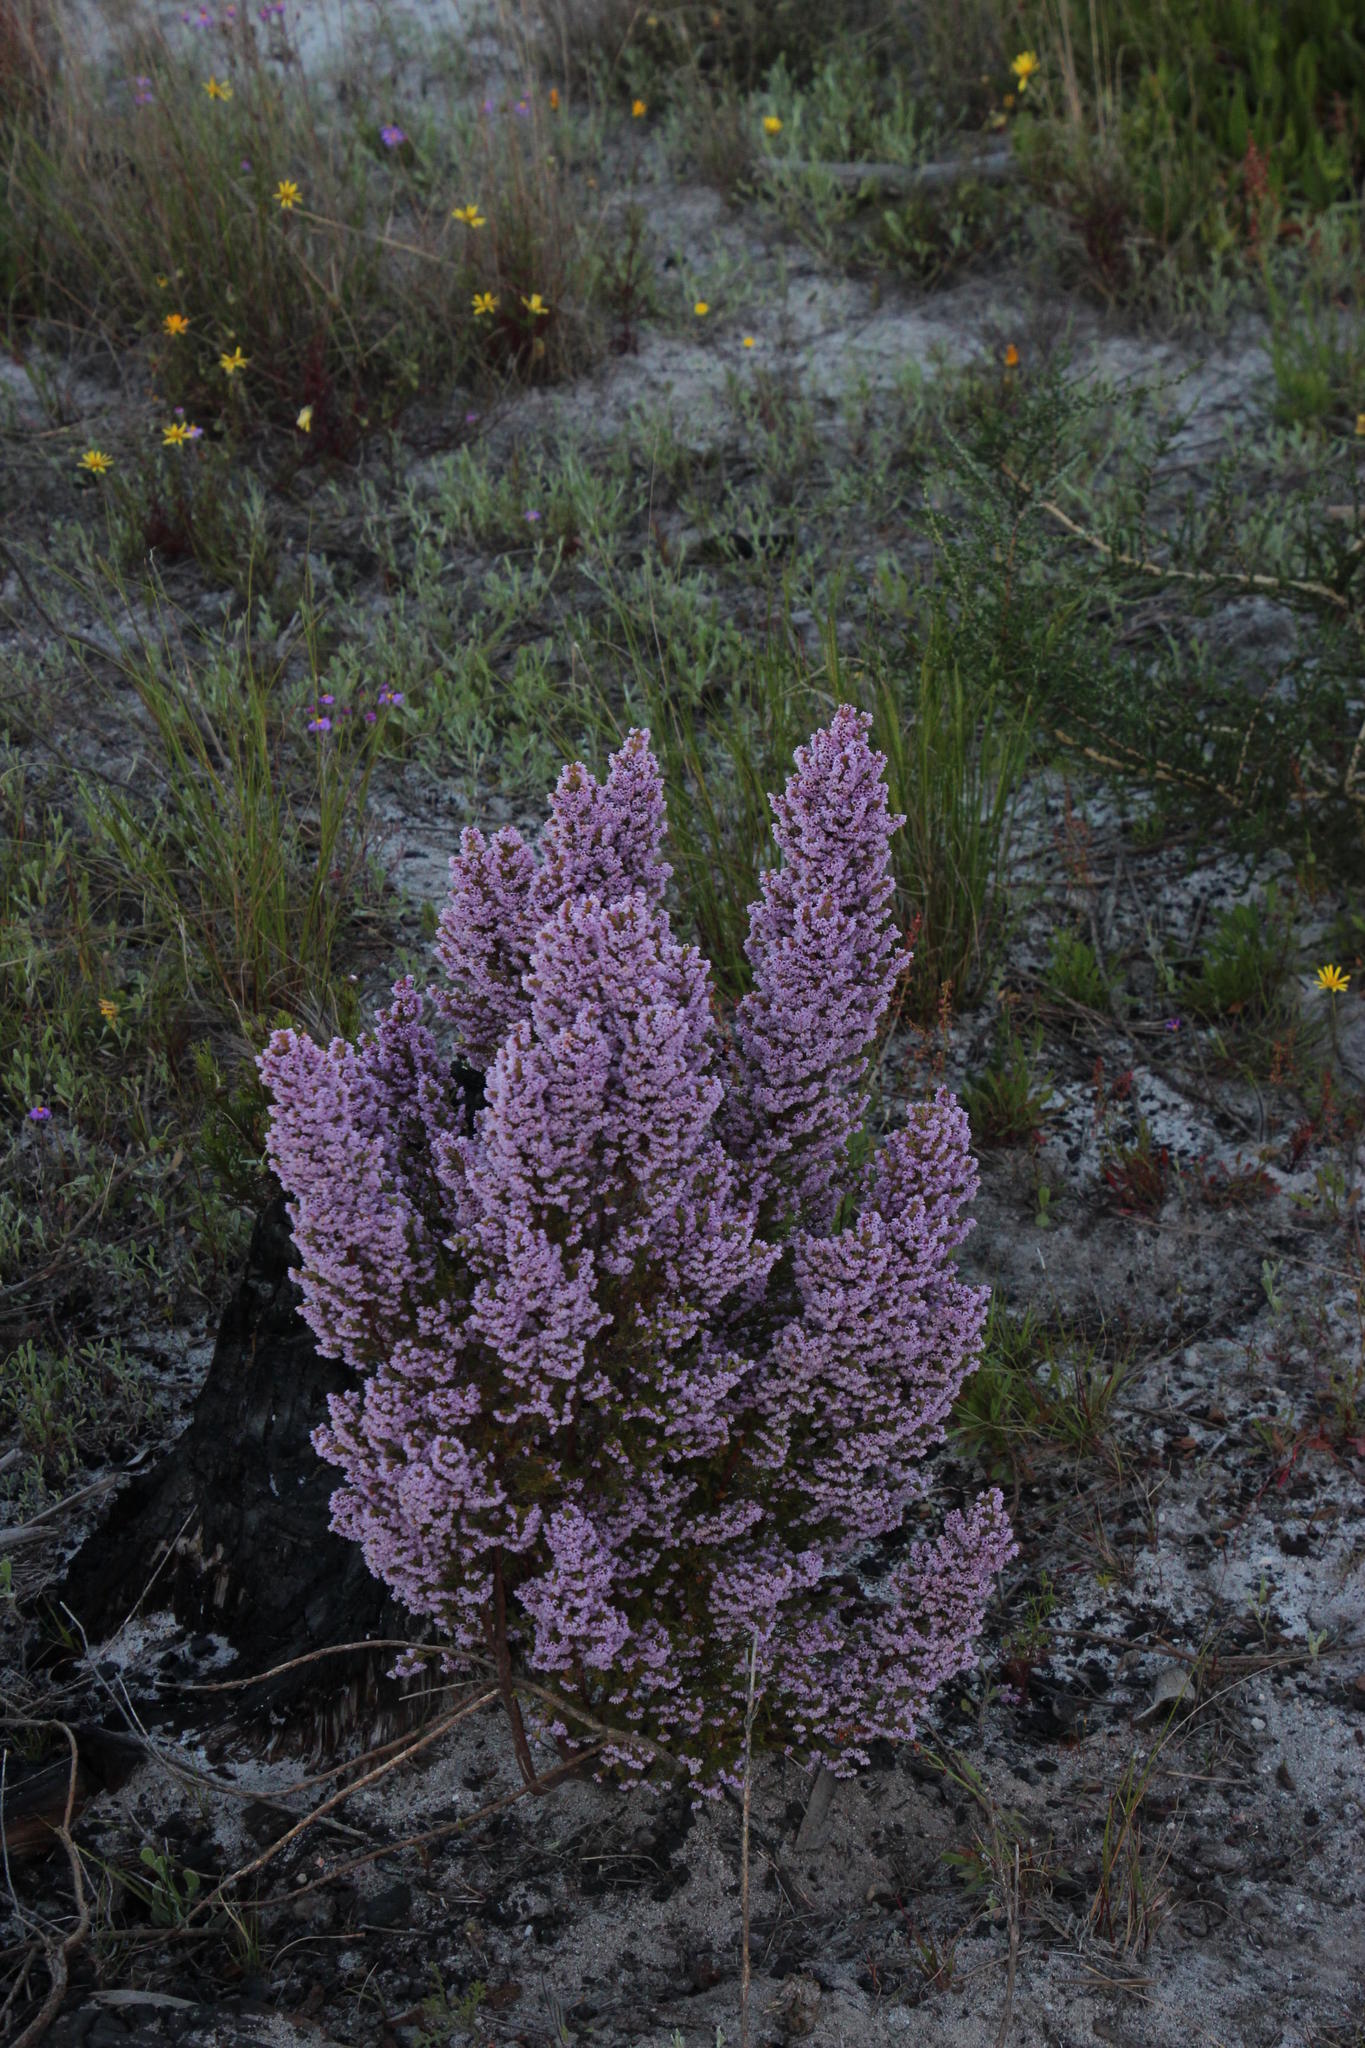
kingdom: Plantae
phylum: Tracheophyta
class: Magnoliopsida
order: Ericales
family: Ericaceae
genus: Erica
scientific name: Erica mauritanica
